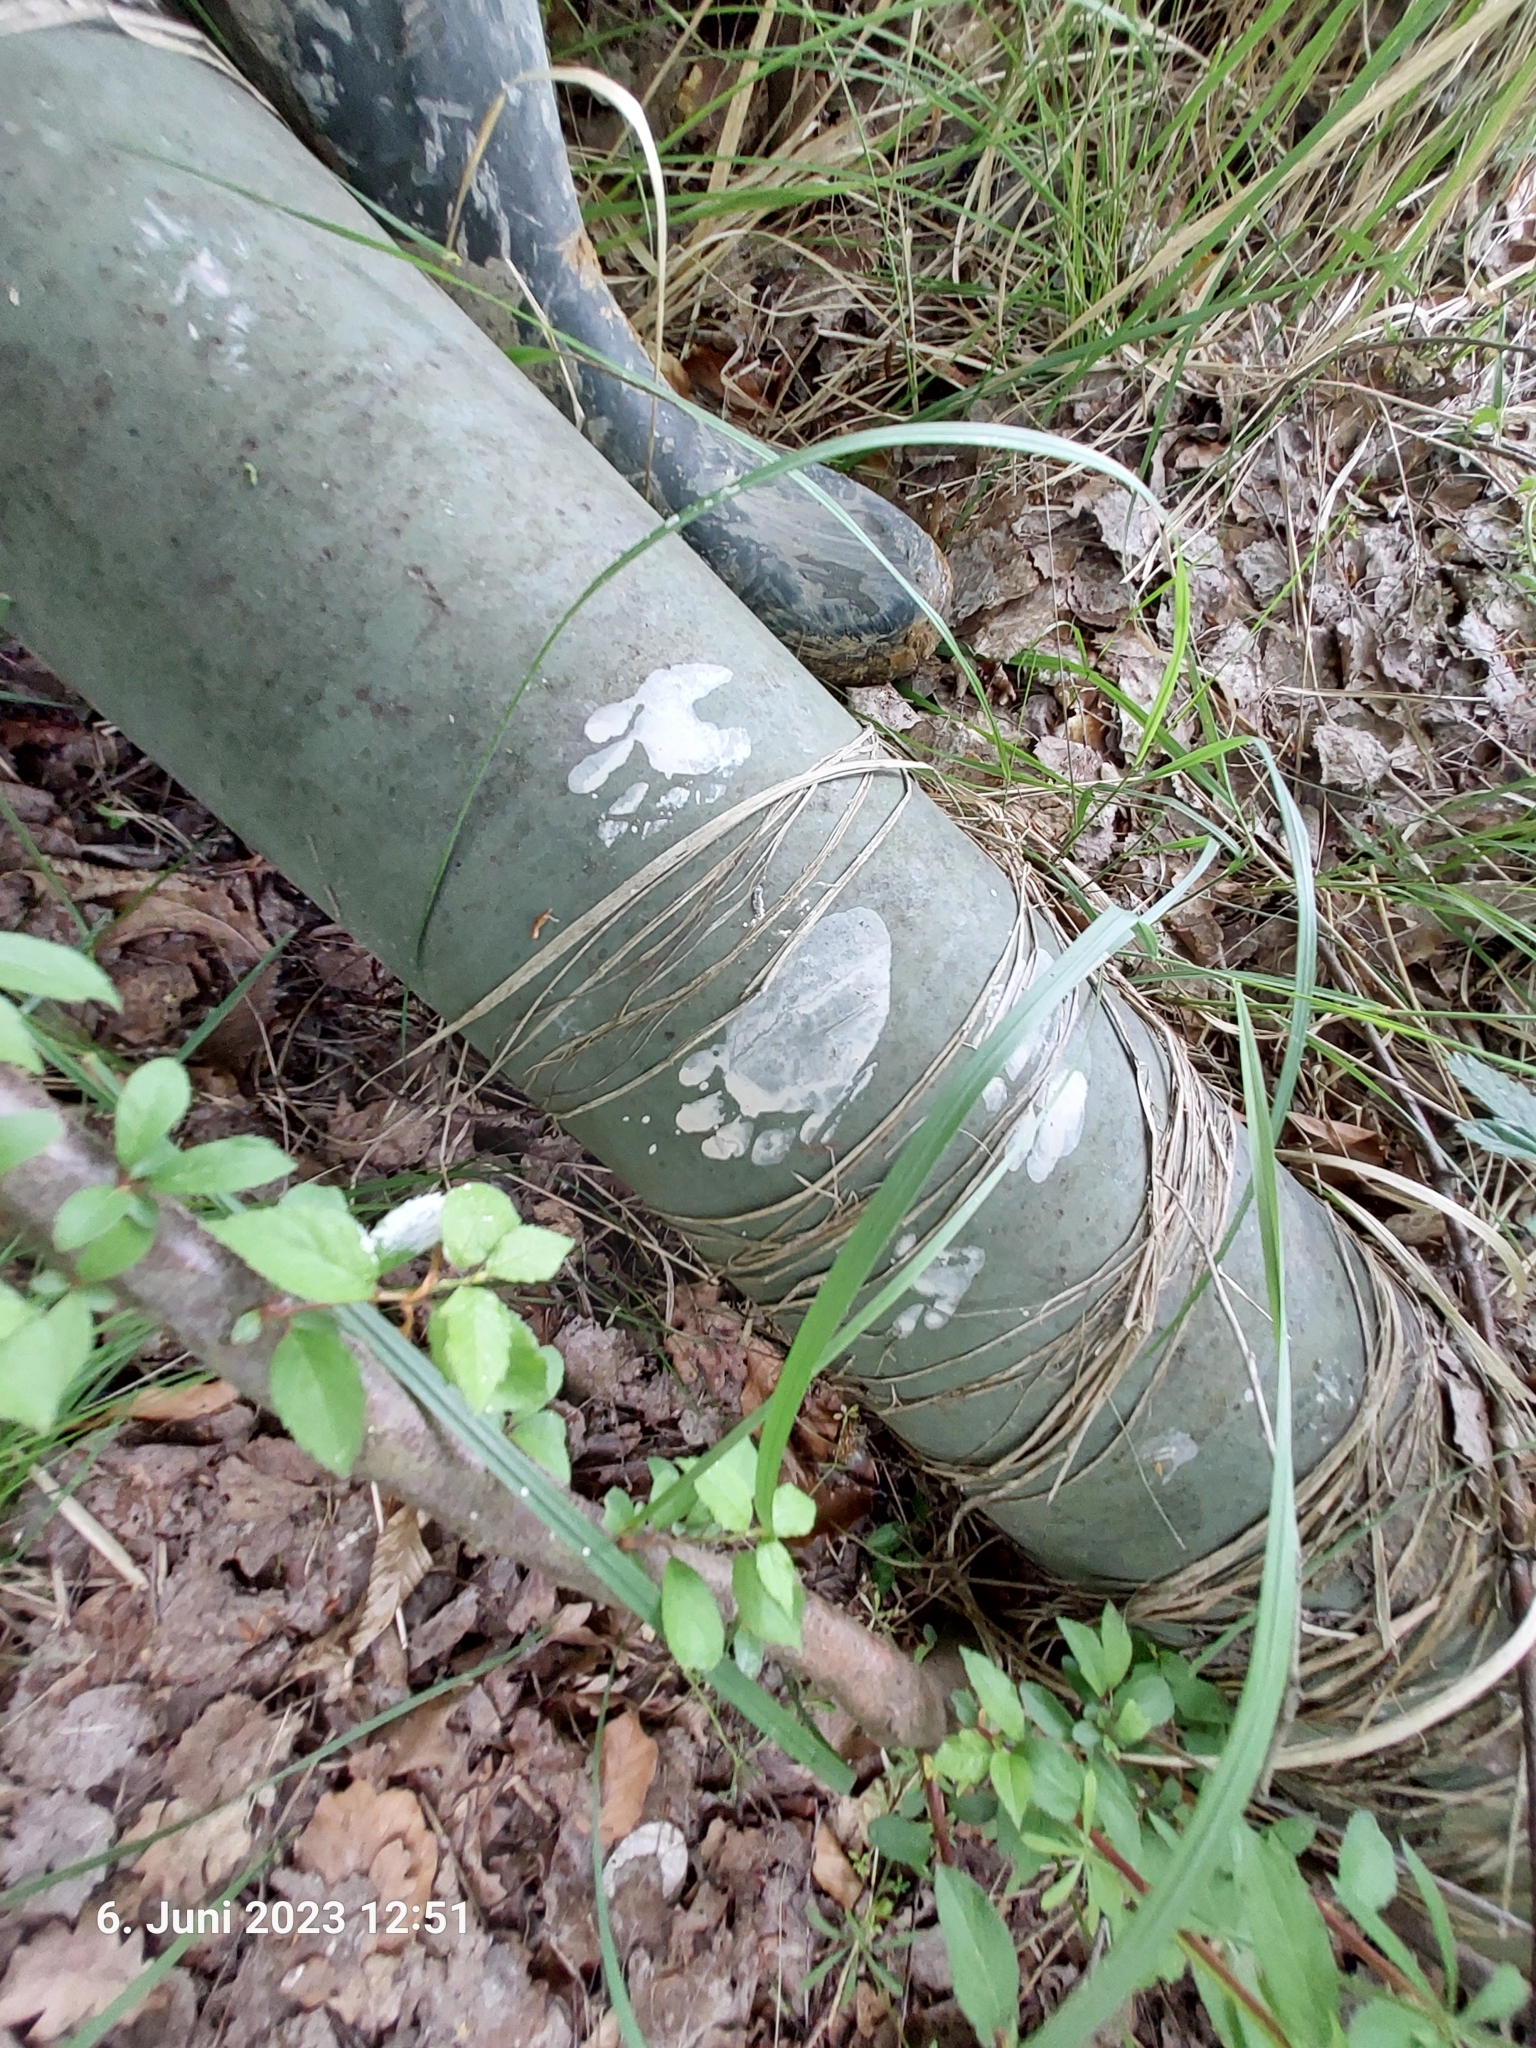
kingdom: Animalia
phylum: Chordata
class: Mammalia
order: Carnivora
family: Procyonidae
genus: Procyon
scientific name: Procyon lotor
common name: Raccoon
